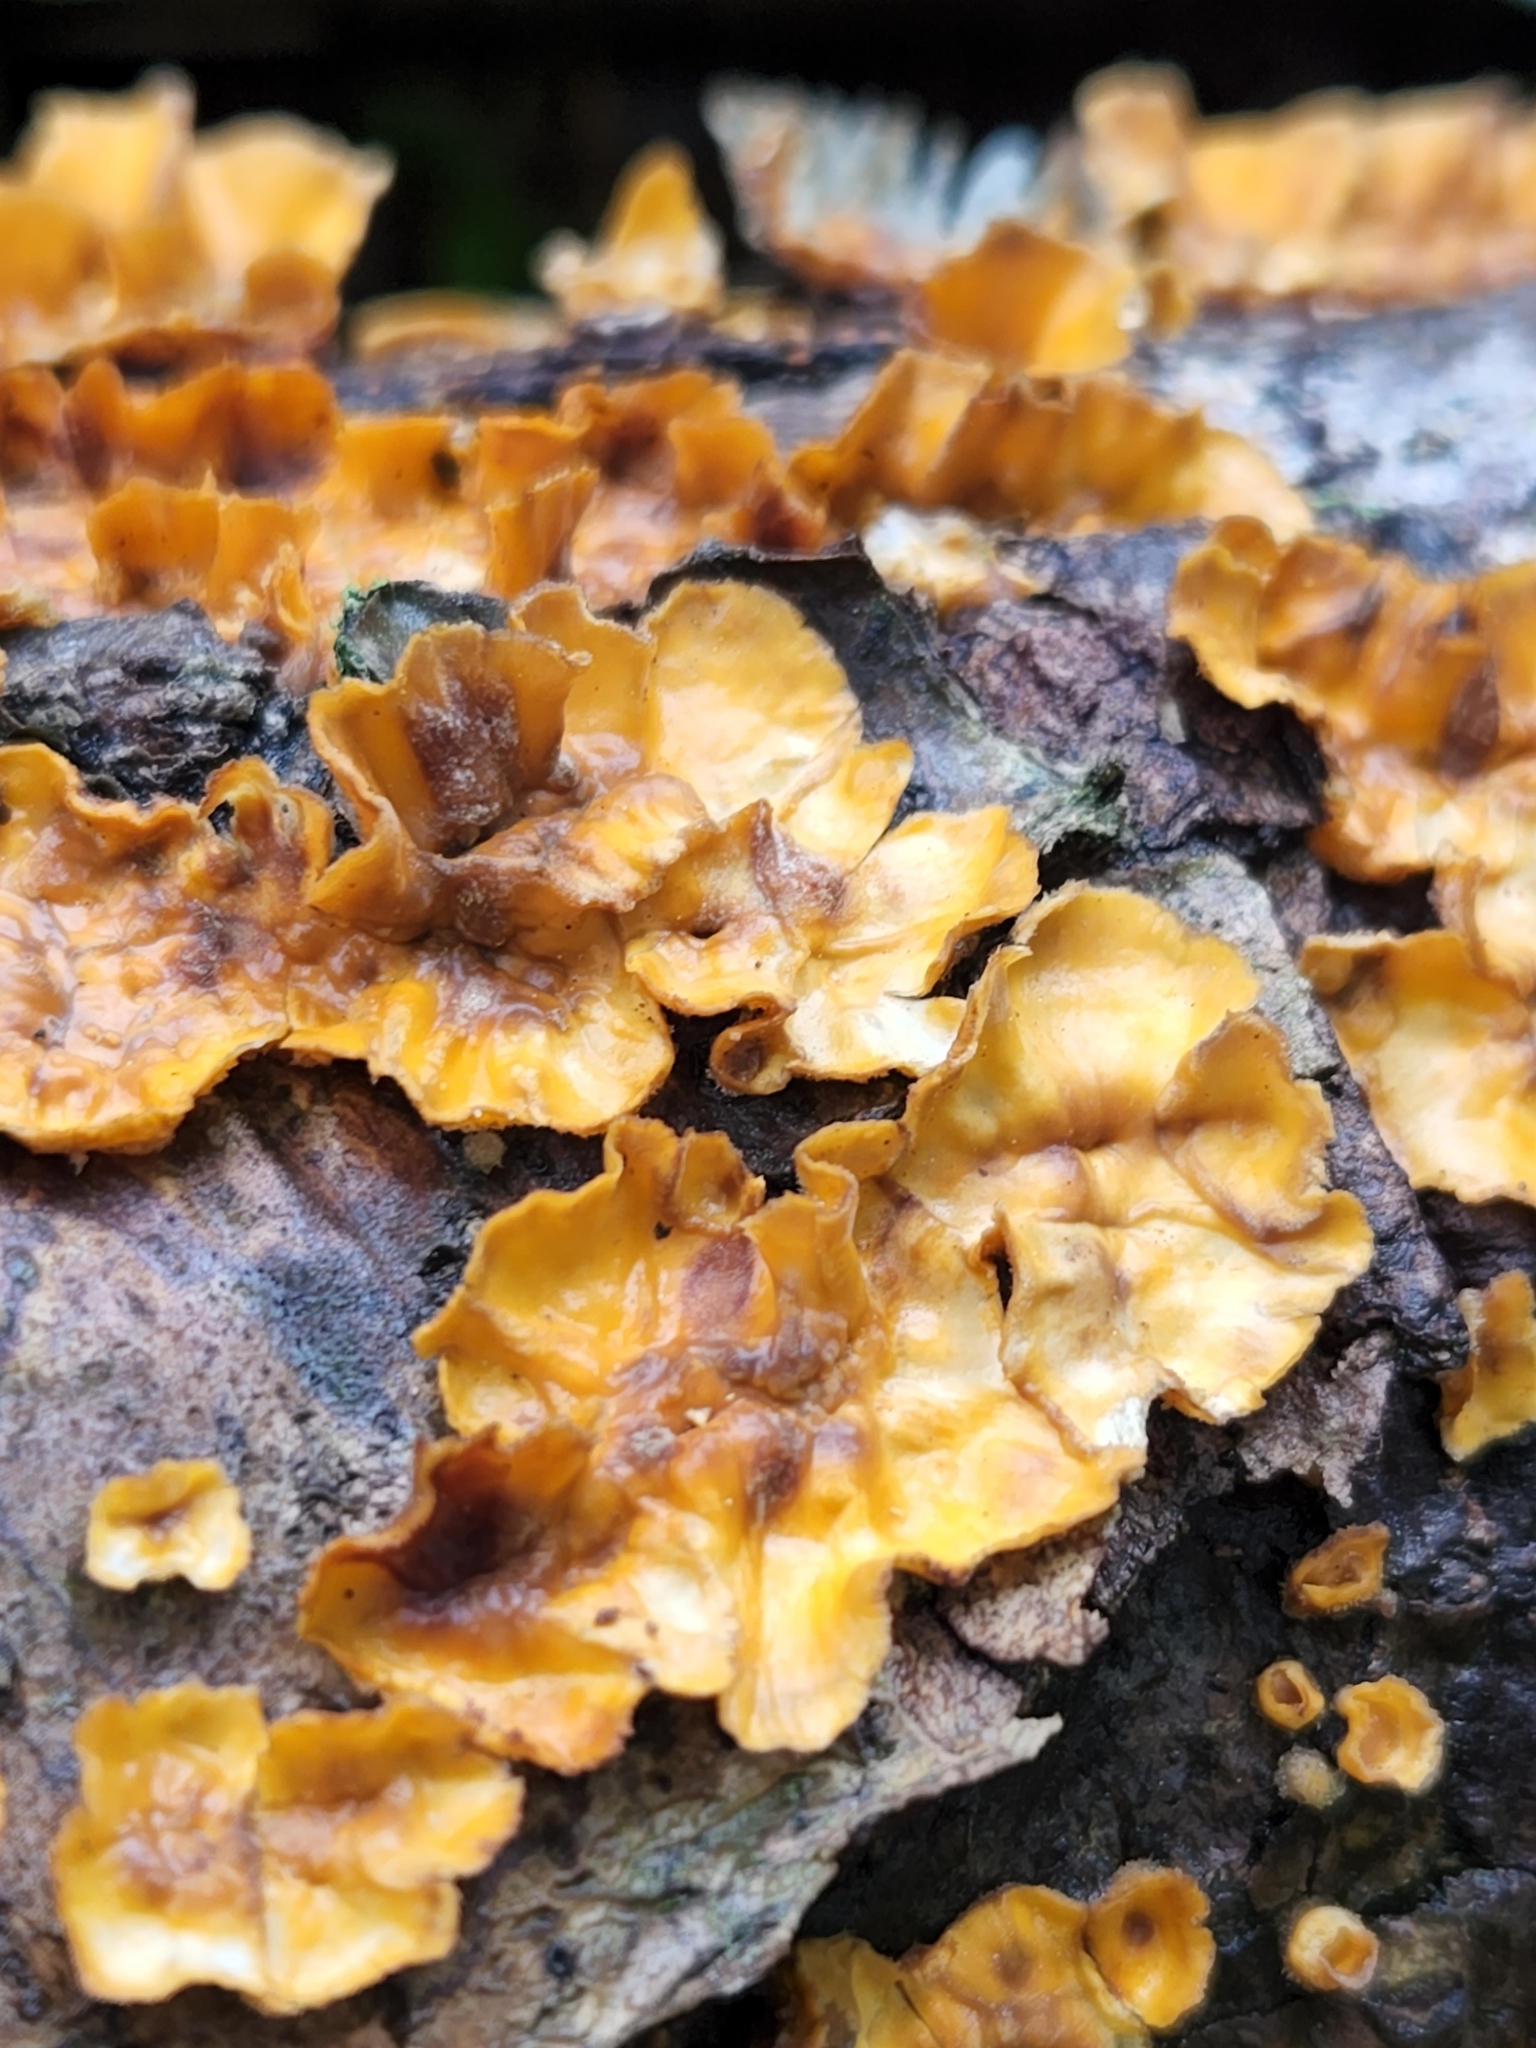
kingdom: Fungi
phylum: Basidiomycota
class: Agaricomycetes
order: Russulales
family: Stereaceae
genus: Stereum
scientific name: Stereum complicatum
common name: Crowded parchment
